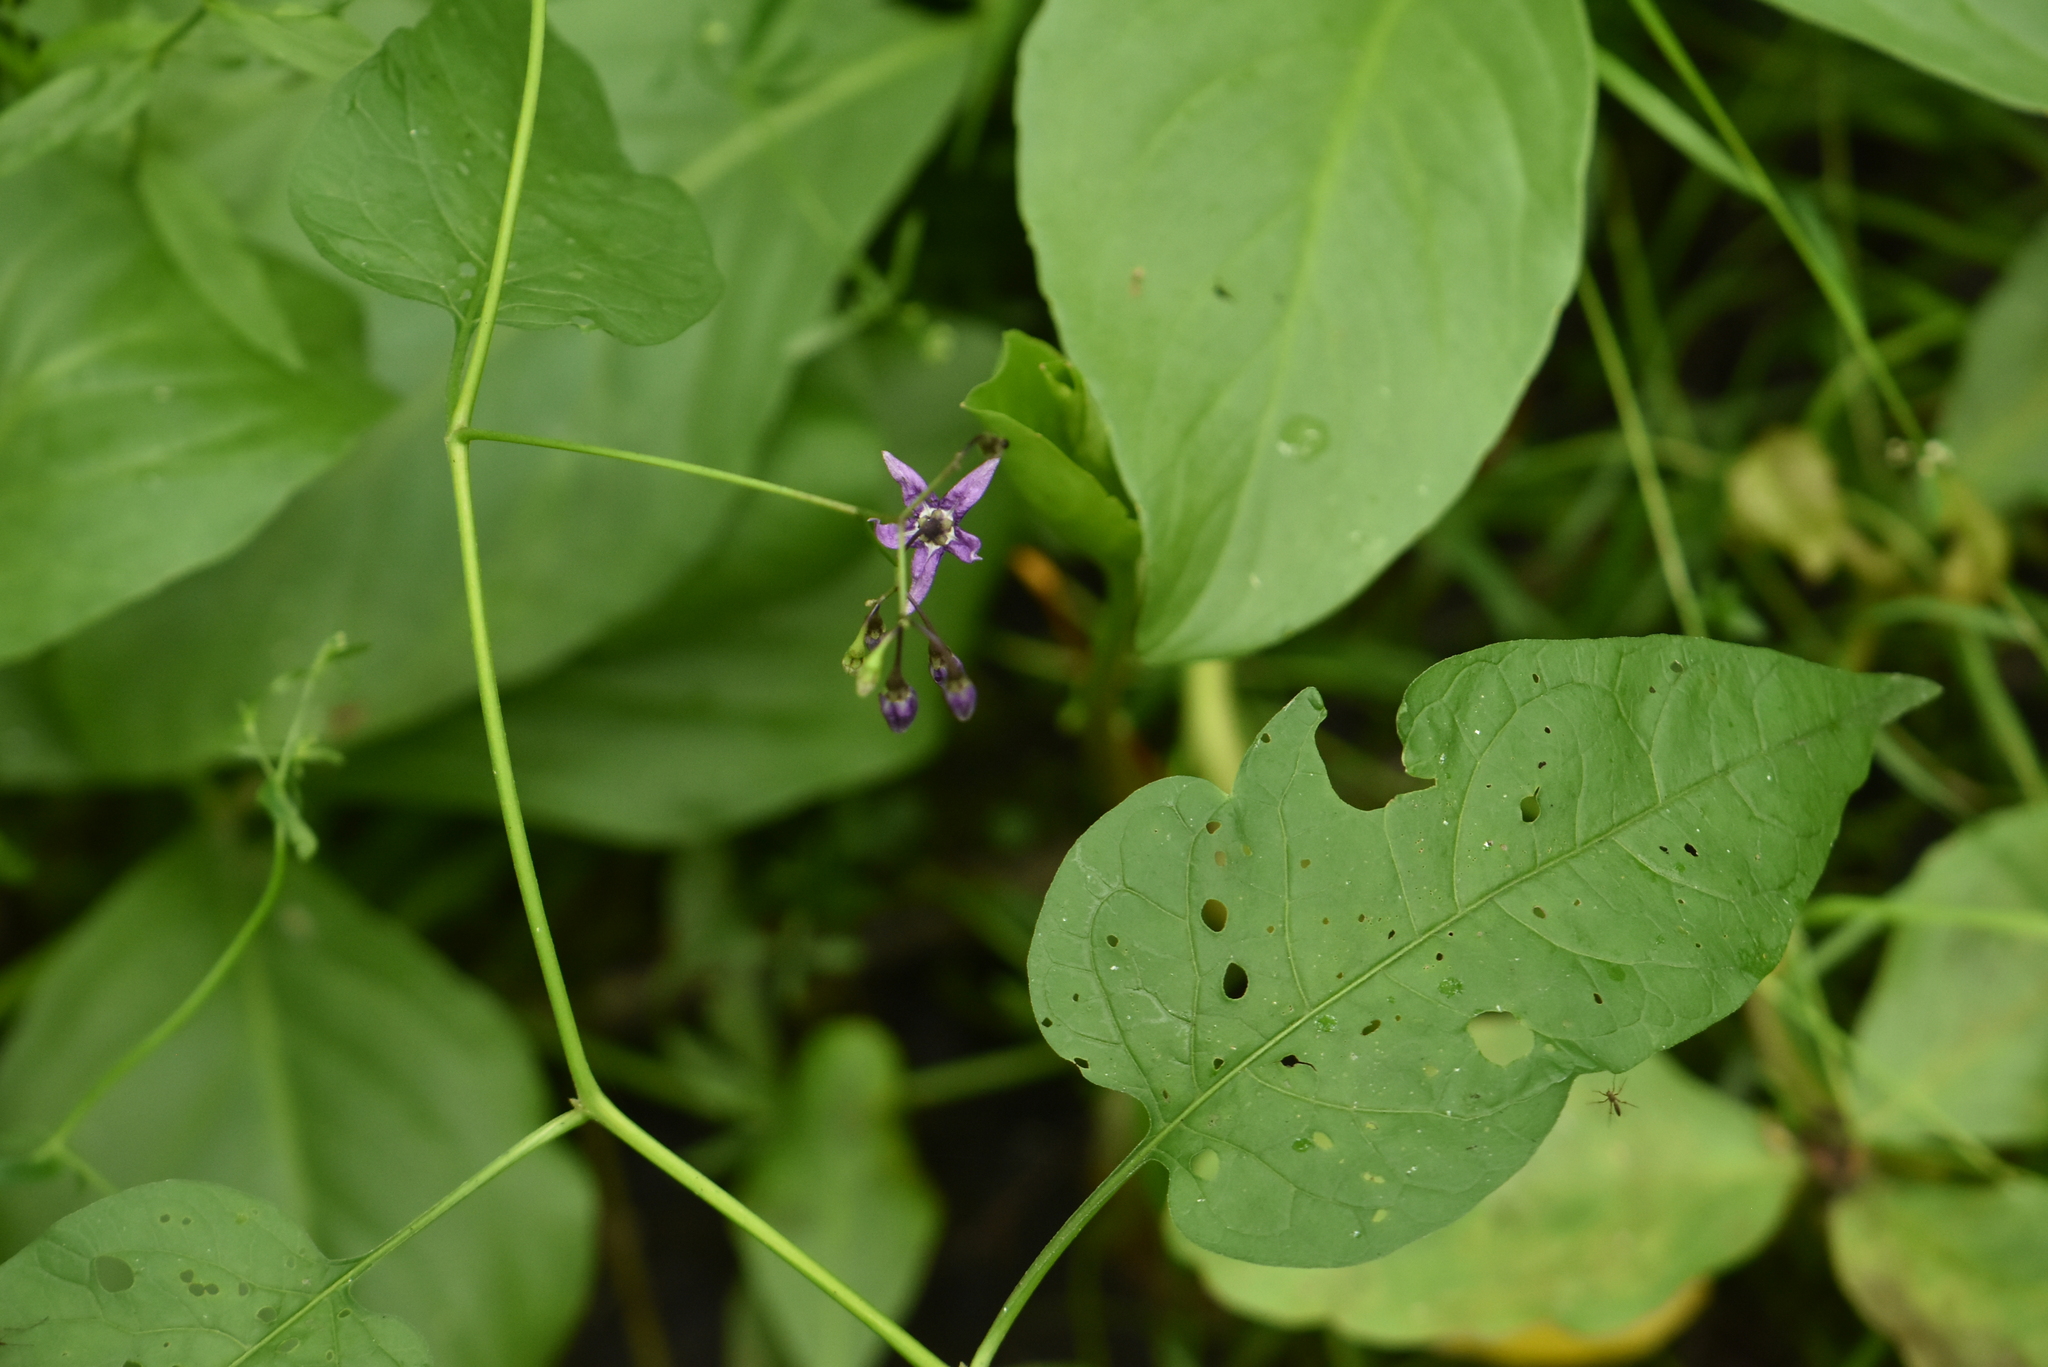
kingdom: Plantae
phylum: Tracheophyta
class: Magnoliopsida
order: Solanales
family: Solanaceae
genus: Solanum
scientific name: Solanum dulcamara
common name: Climbing nightshade
